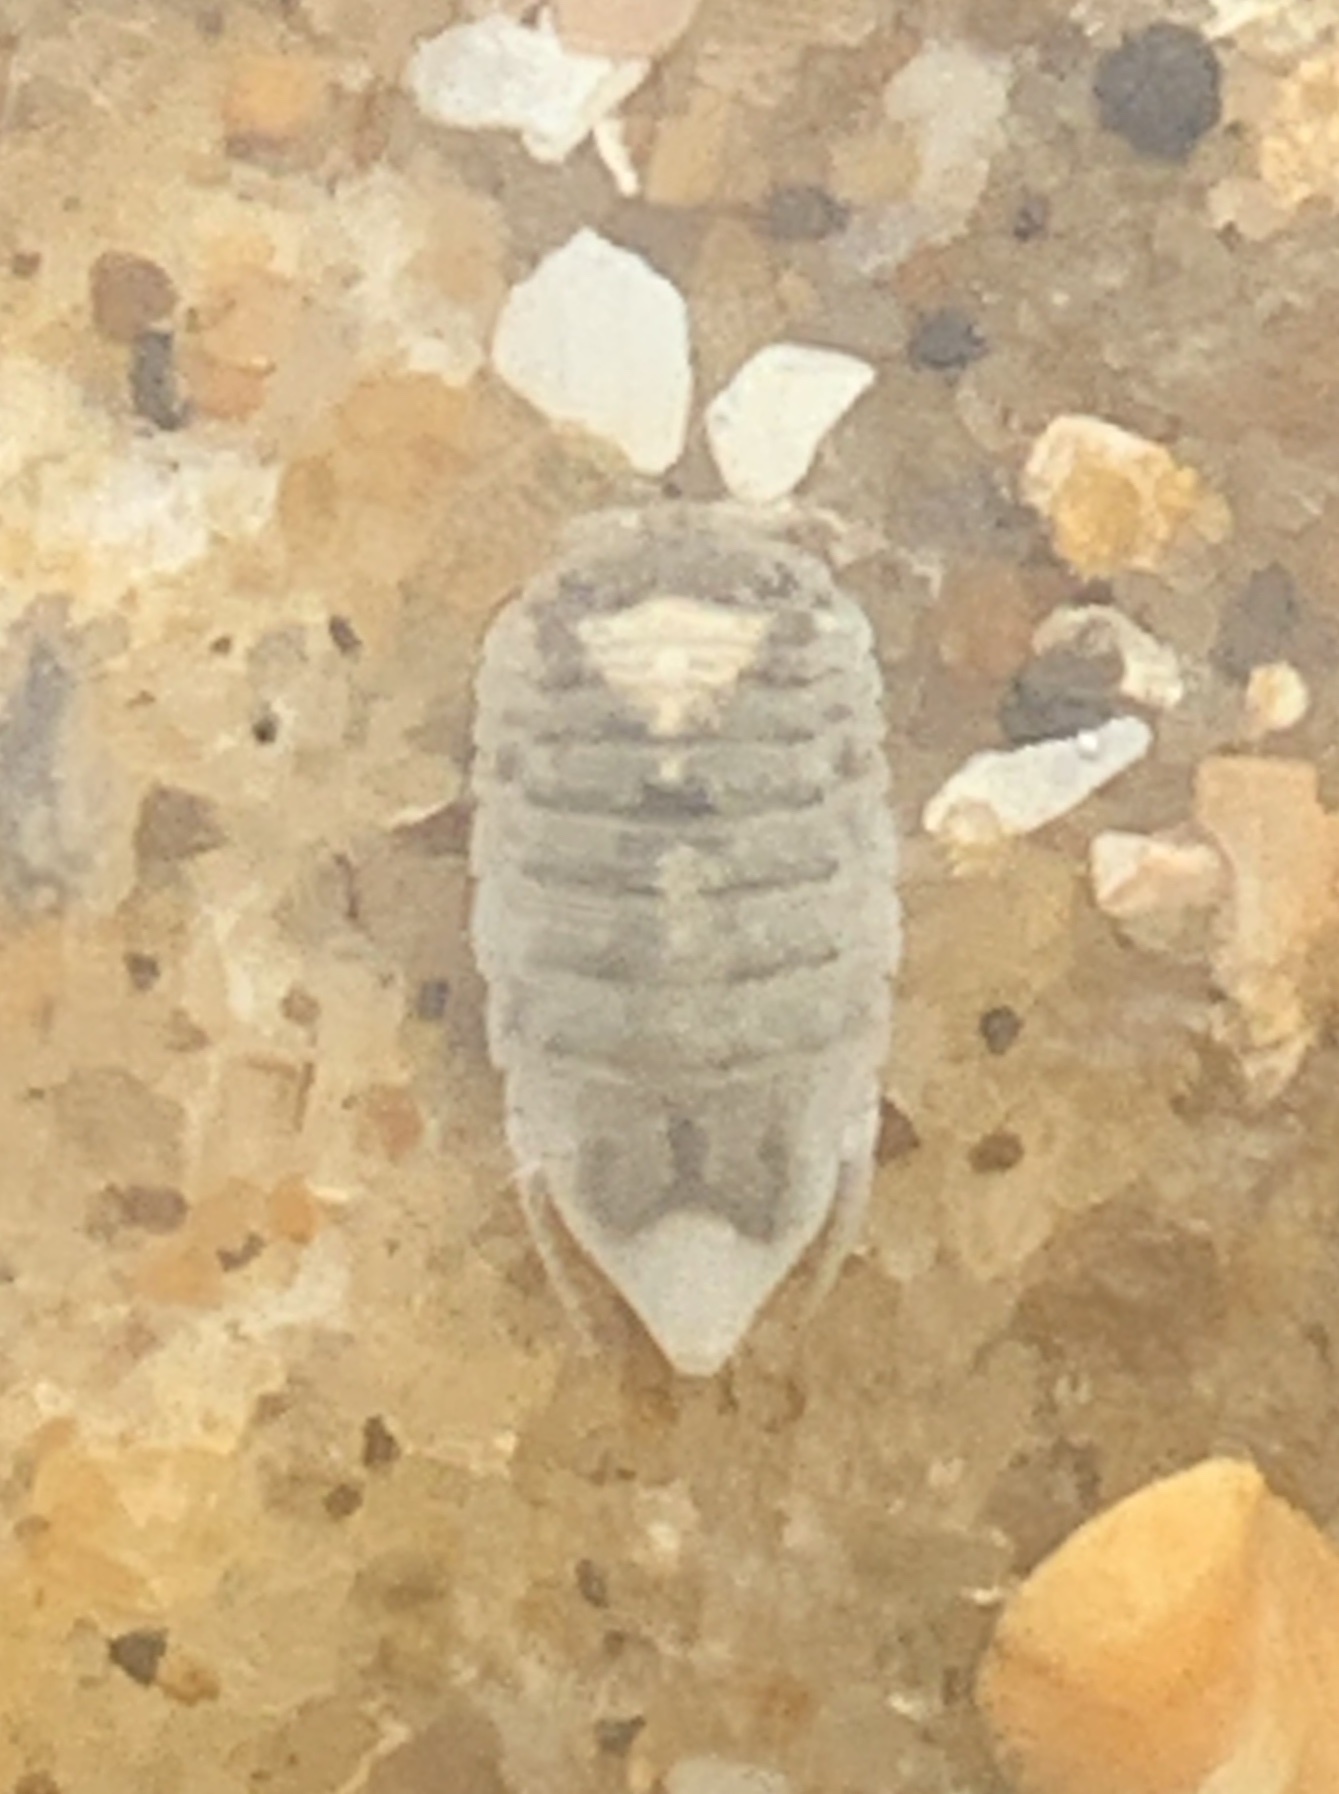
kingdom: Animalia
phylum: Arthropoda
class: Malacostraca
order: Isopoda
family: Ancinidae
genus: Ancinus
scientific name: Ancinus depressus
